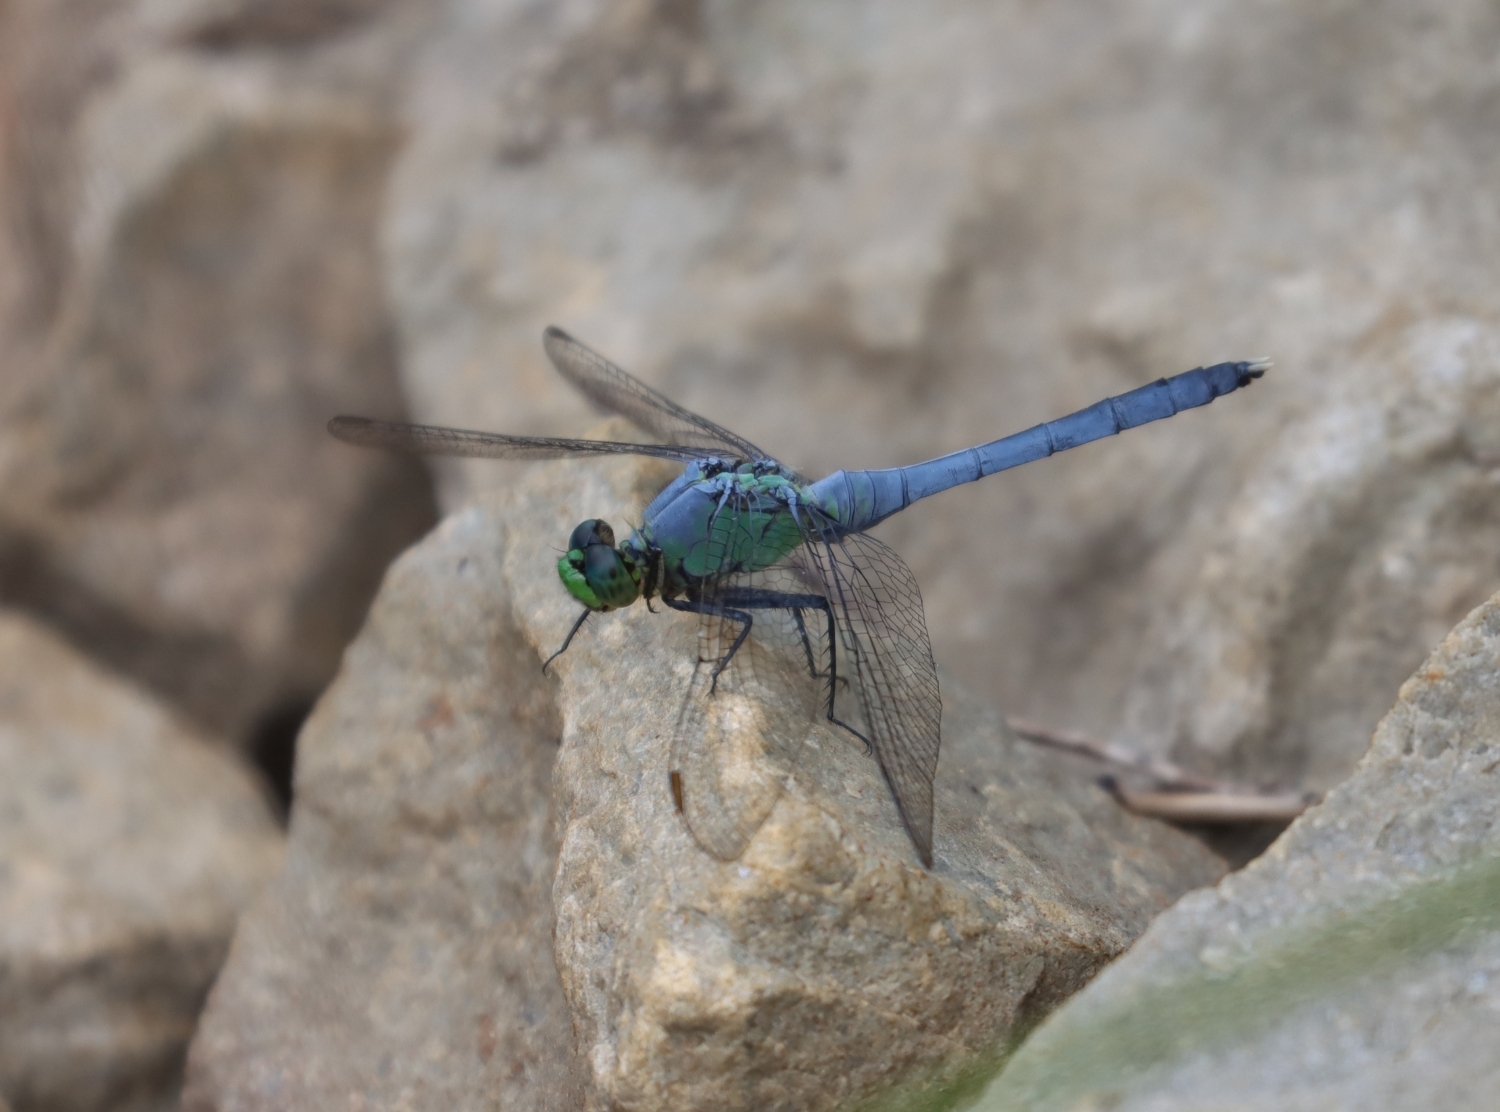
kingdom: Animalia
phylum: Arthropoda
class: Insecta
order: Odonata
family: Libellulidae
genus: Erythemis
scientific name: Erythemis simplicicollis
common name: Eastern pondhawk
